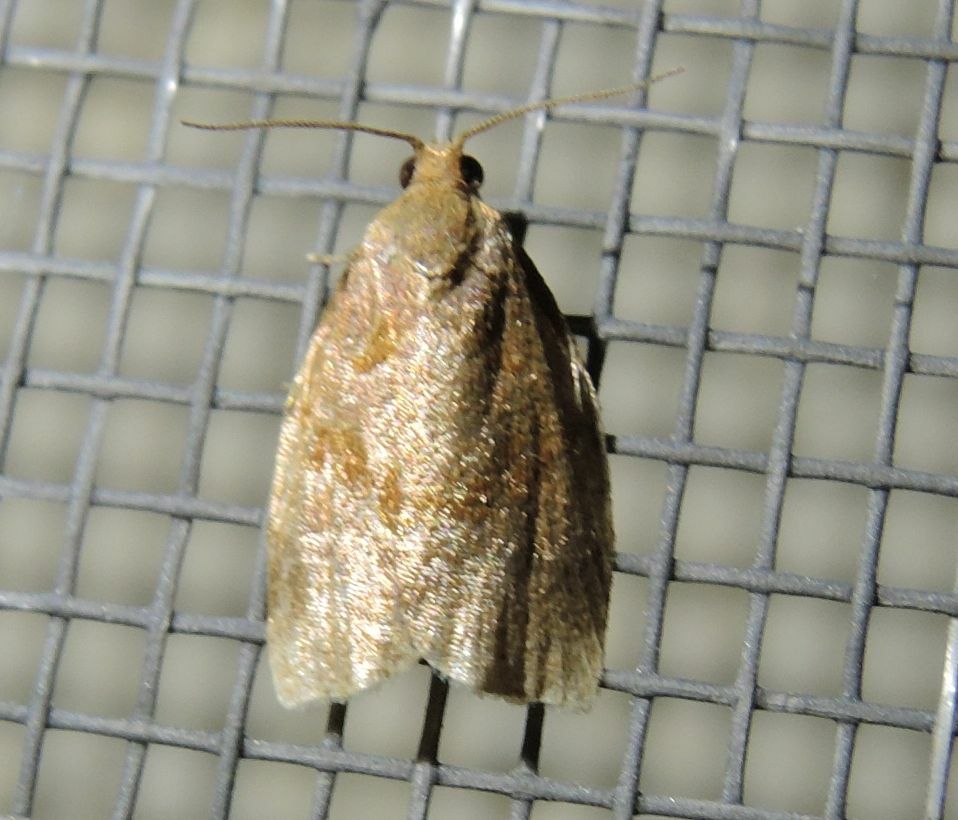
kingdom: Animalia
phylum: Arthropoda
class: Insecta
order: Lepidoptera
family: Tortricidae
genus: Archips
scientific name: Archips rosana
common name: Rose tortrix
